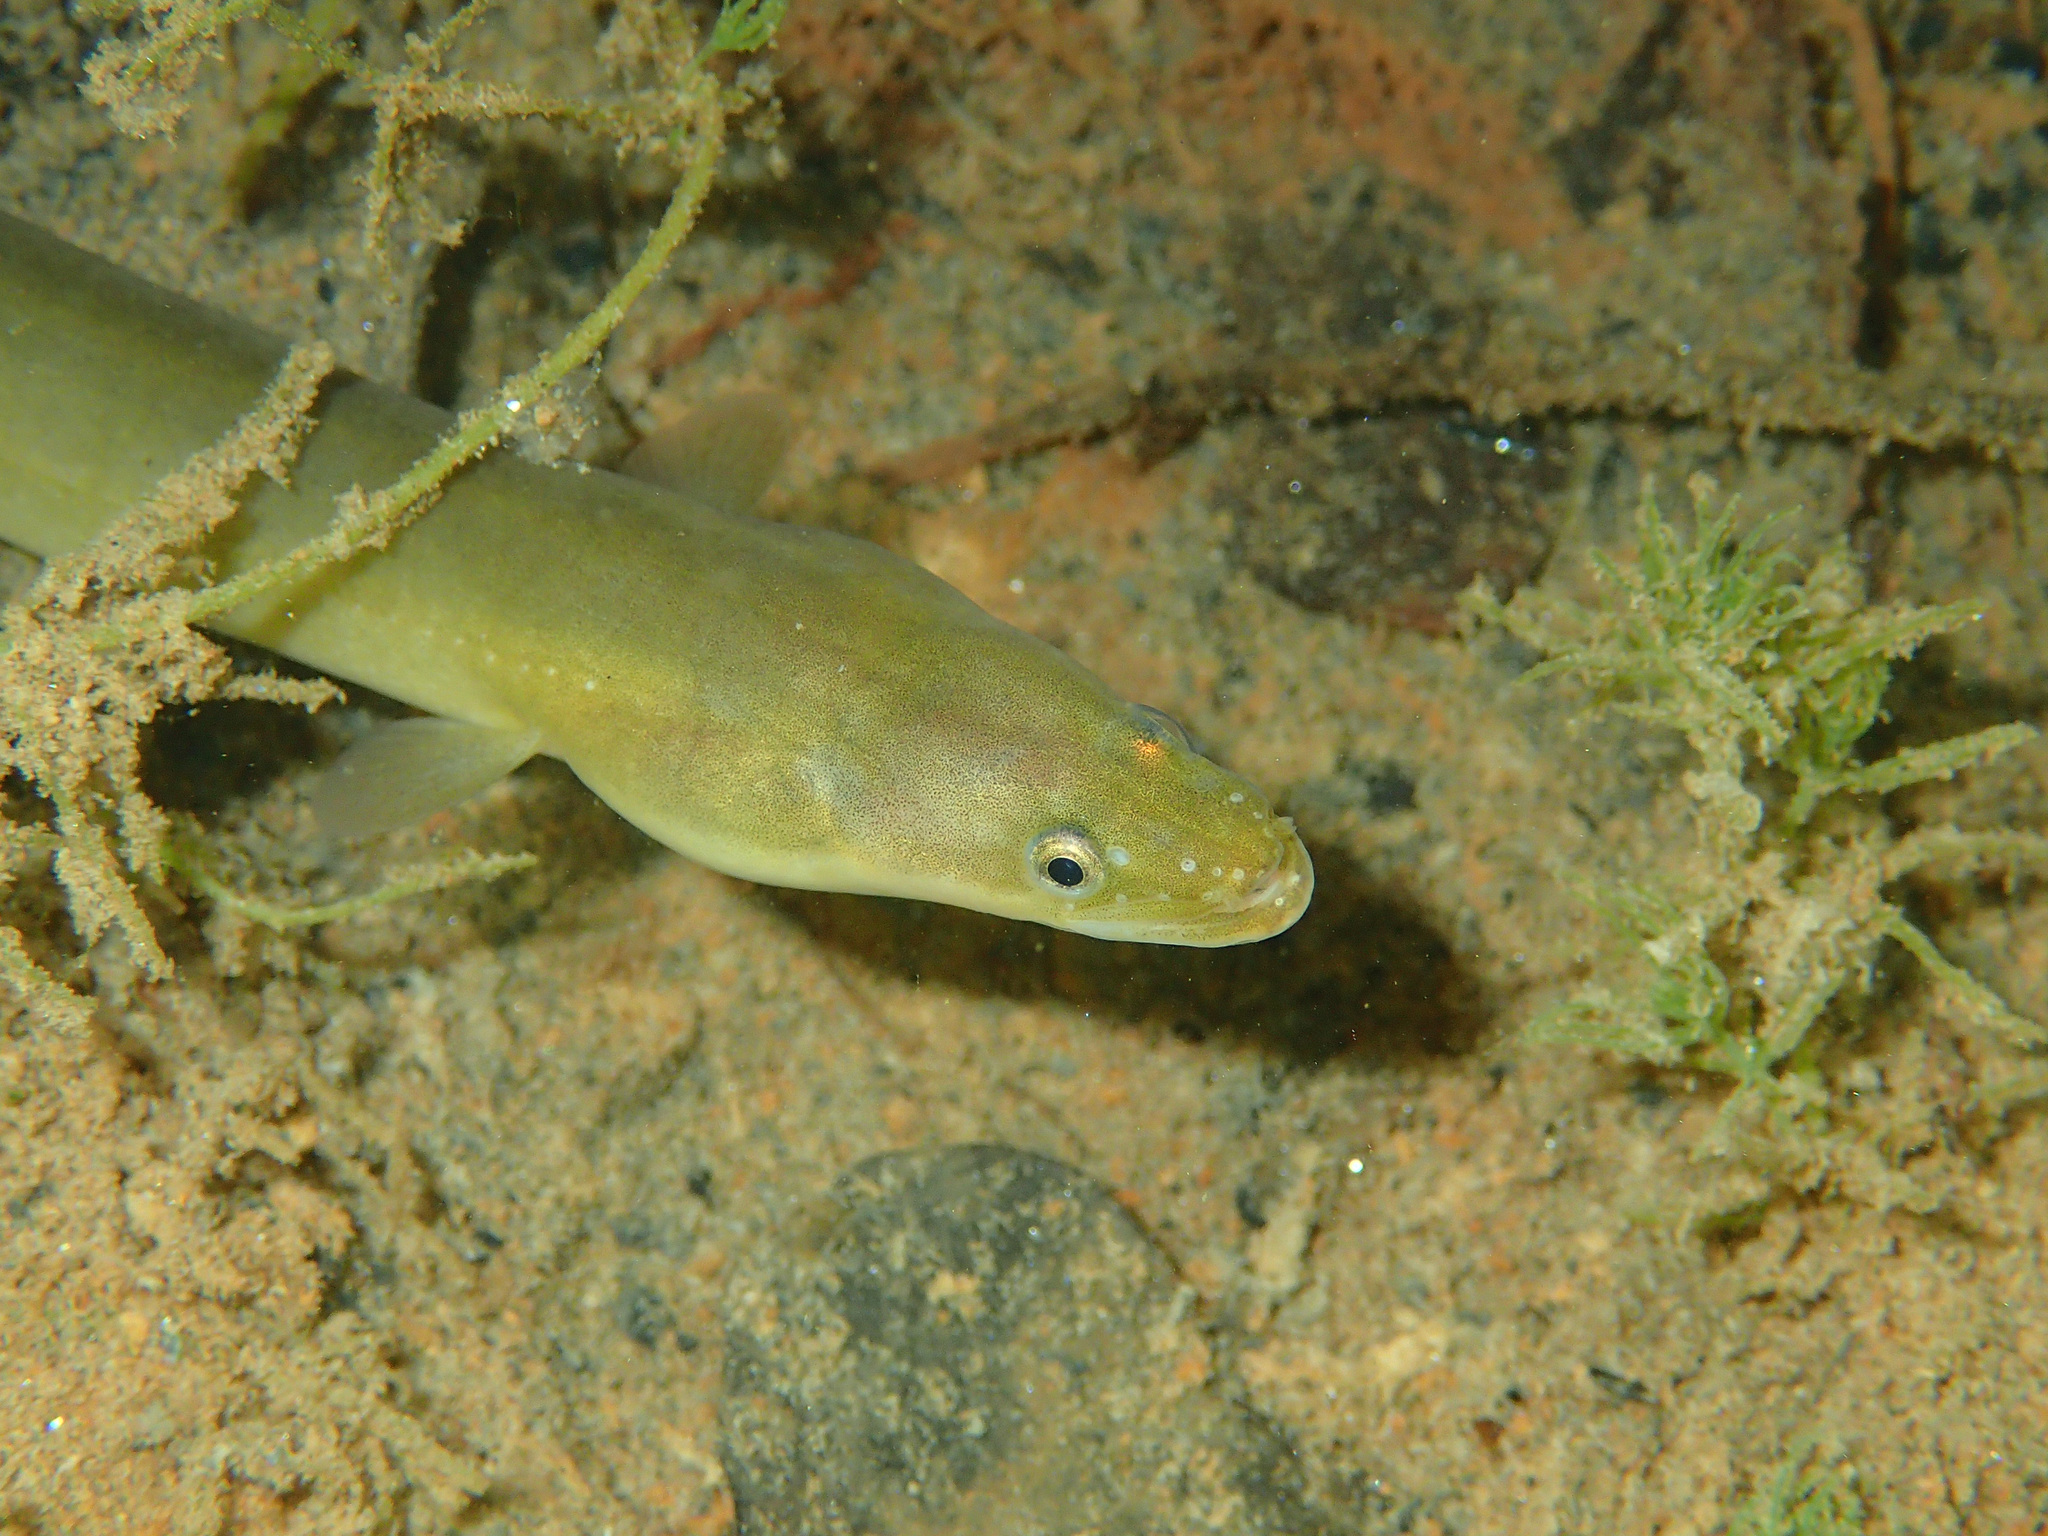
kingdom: Animalia
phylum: Chordata
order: Anguilliformes
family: Anguillidae
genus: Anguilla
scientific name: Anguilla anguilla
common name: European eel
